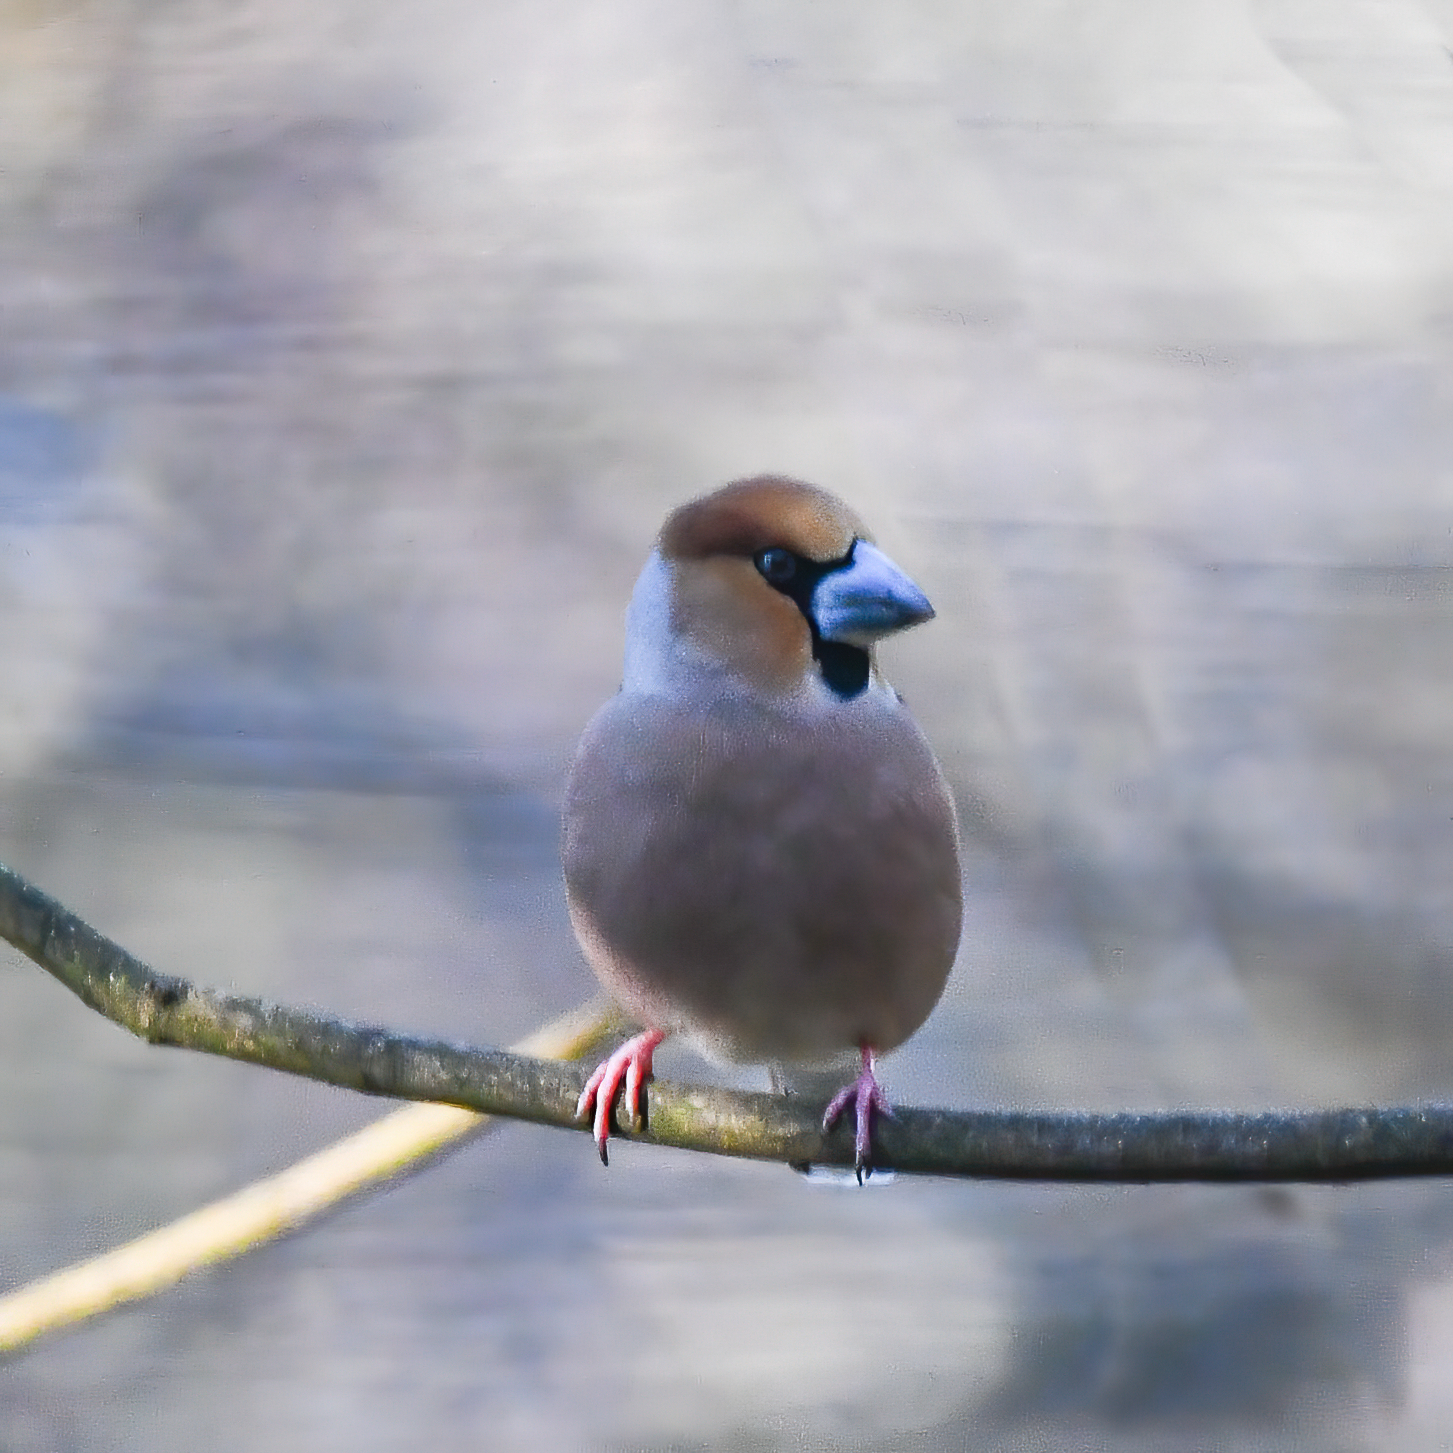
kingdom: Animalia
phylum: Chordata
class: Aves
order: Passeriformes
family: Fringillidae
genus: Coccothraustes
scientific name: Coccothraustes coccothraustes
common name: Hawfinch
